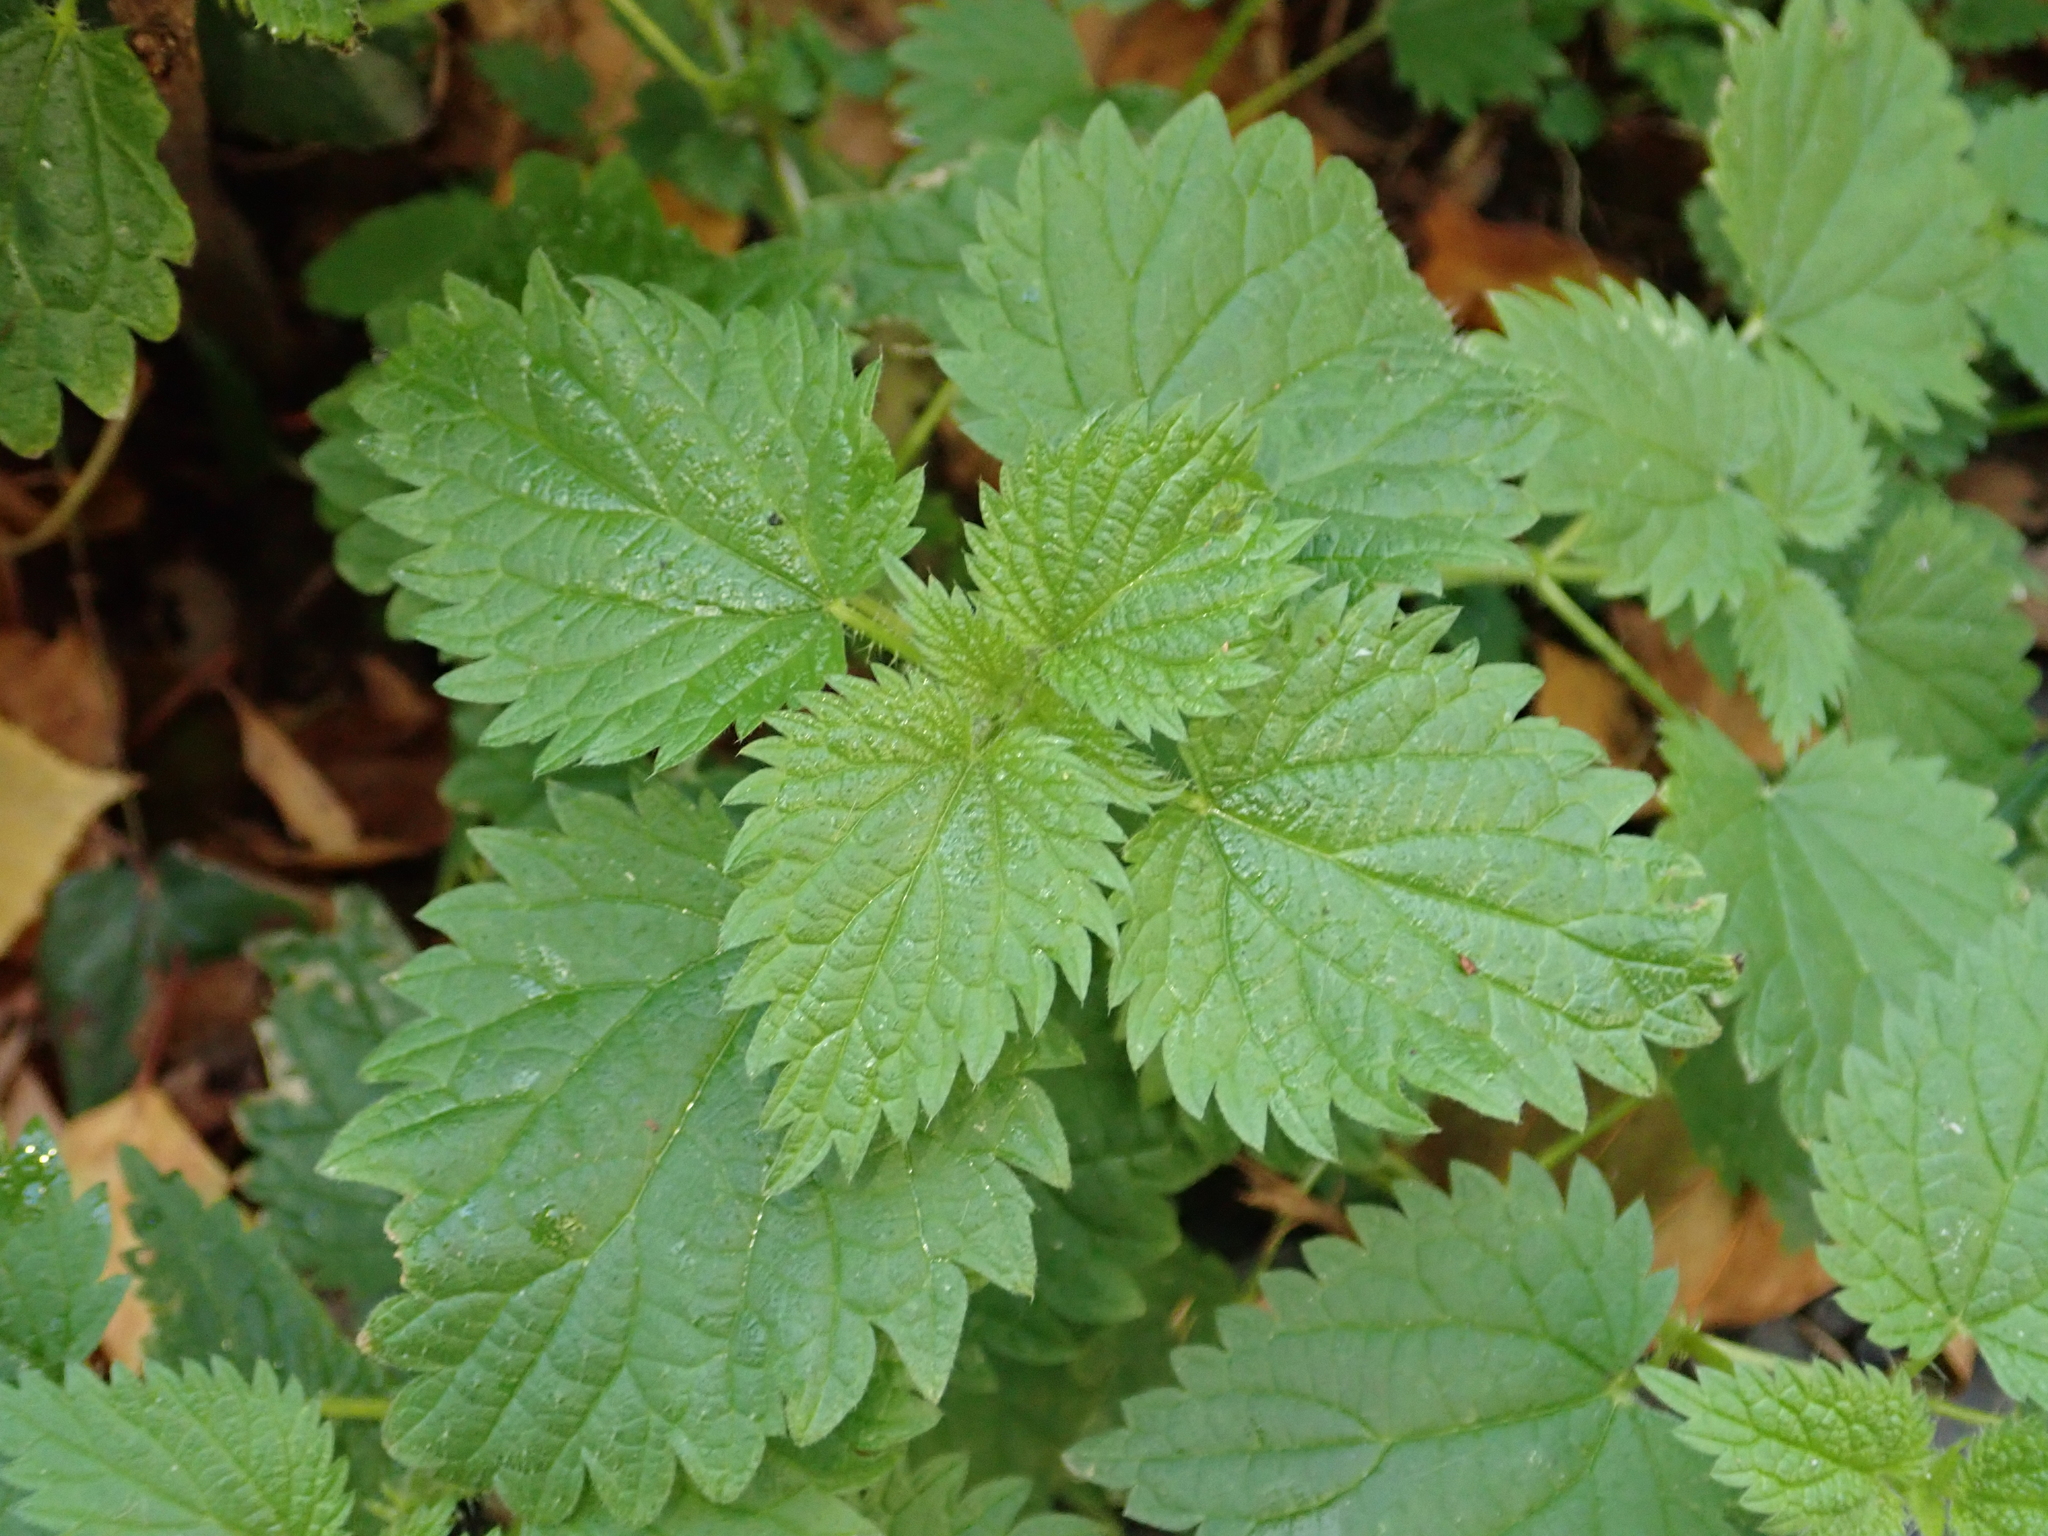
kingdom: Plantae
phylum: Tracheophyta
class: Magnoliopsida
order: Rosales
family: Urticaceae
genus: Urtica
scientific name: Urtica dioica
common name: Common nettle
